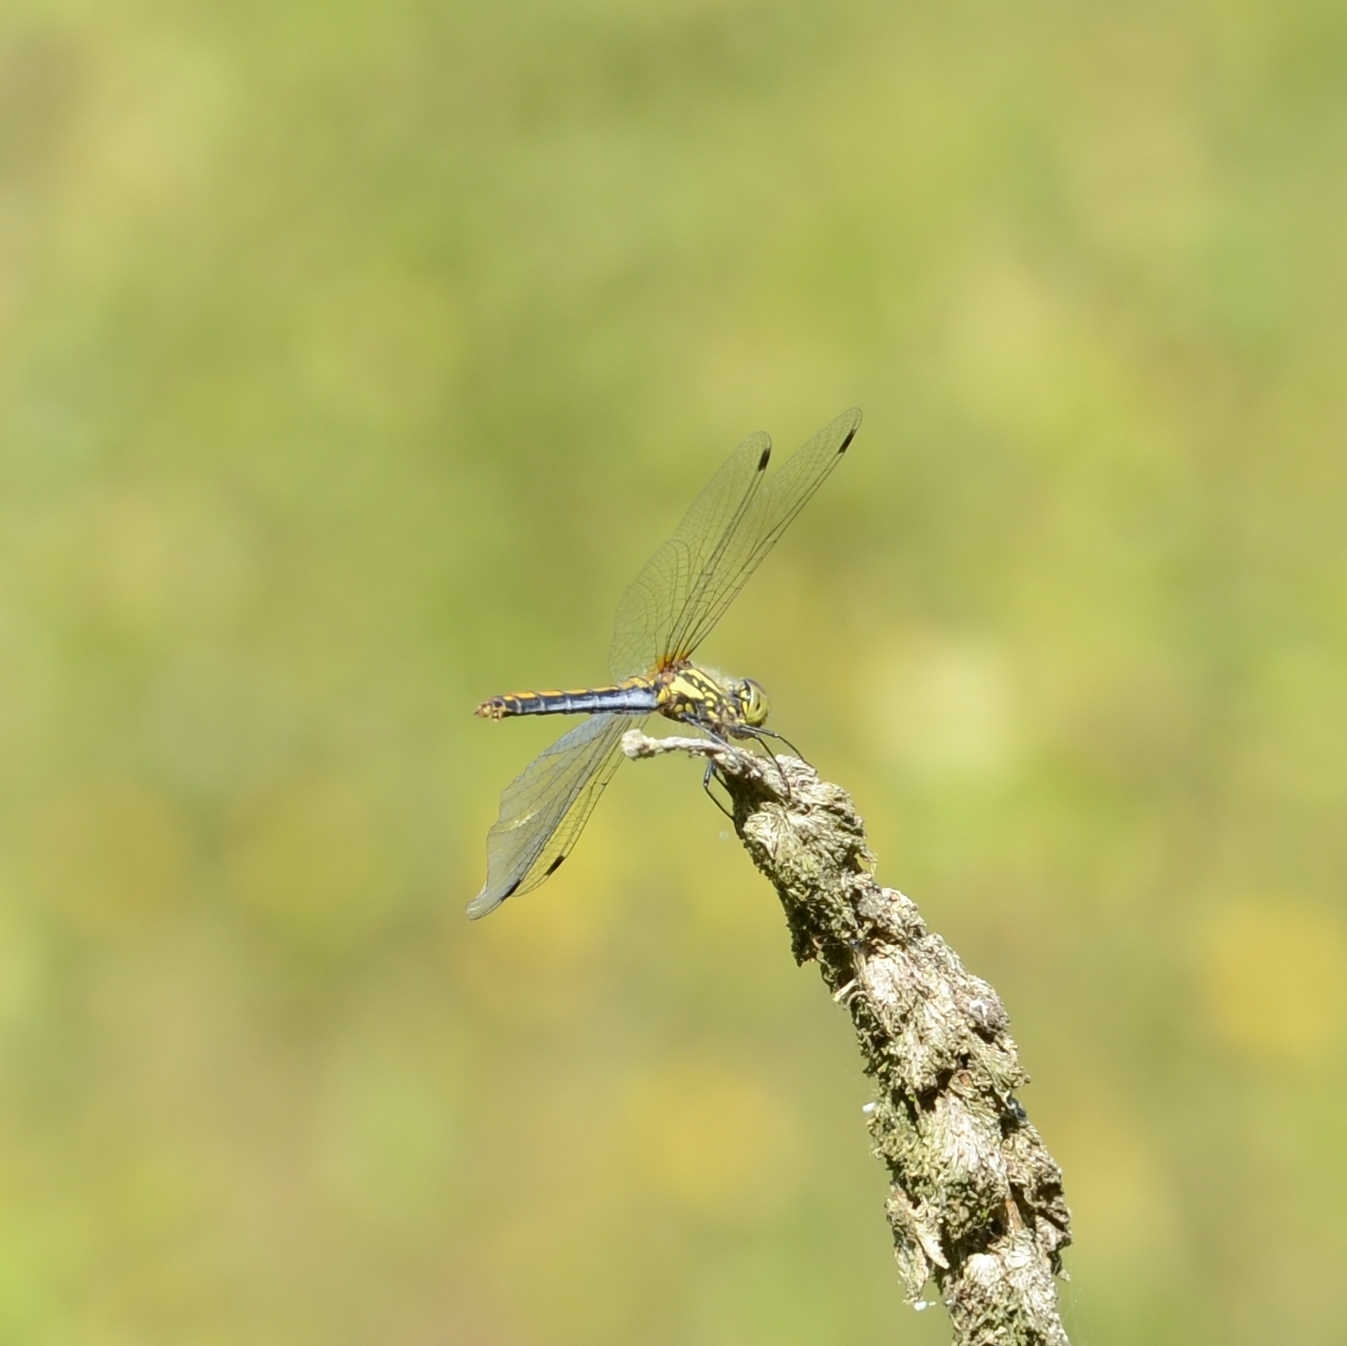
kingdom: Animalia
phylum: Arthropoda
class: Insecta
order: Odonata
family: Libellulidae
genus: Sympetrum
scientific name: Sympetrum danae
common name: Black darter
